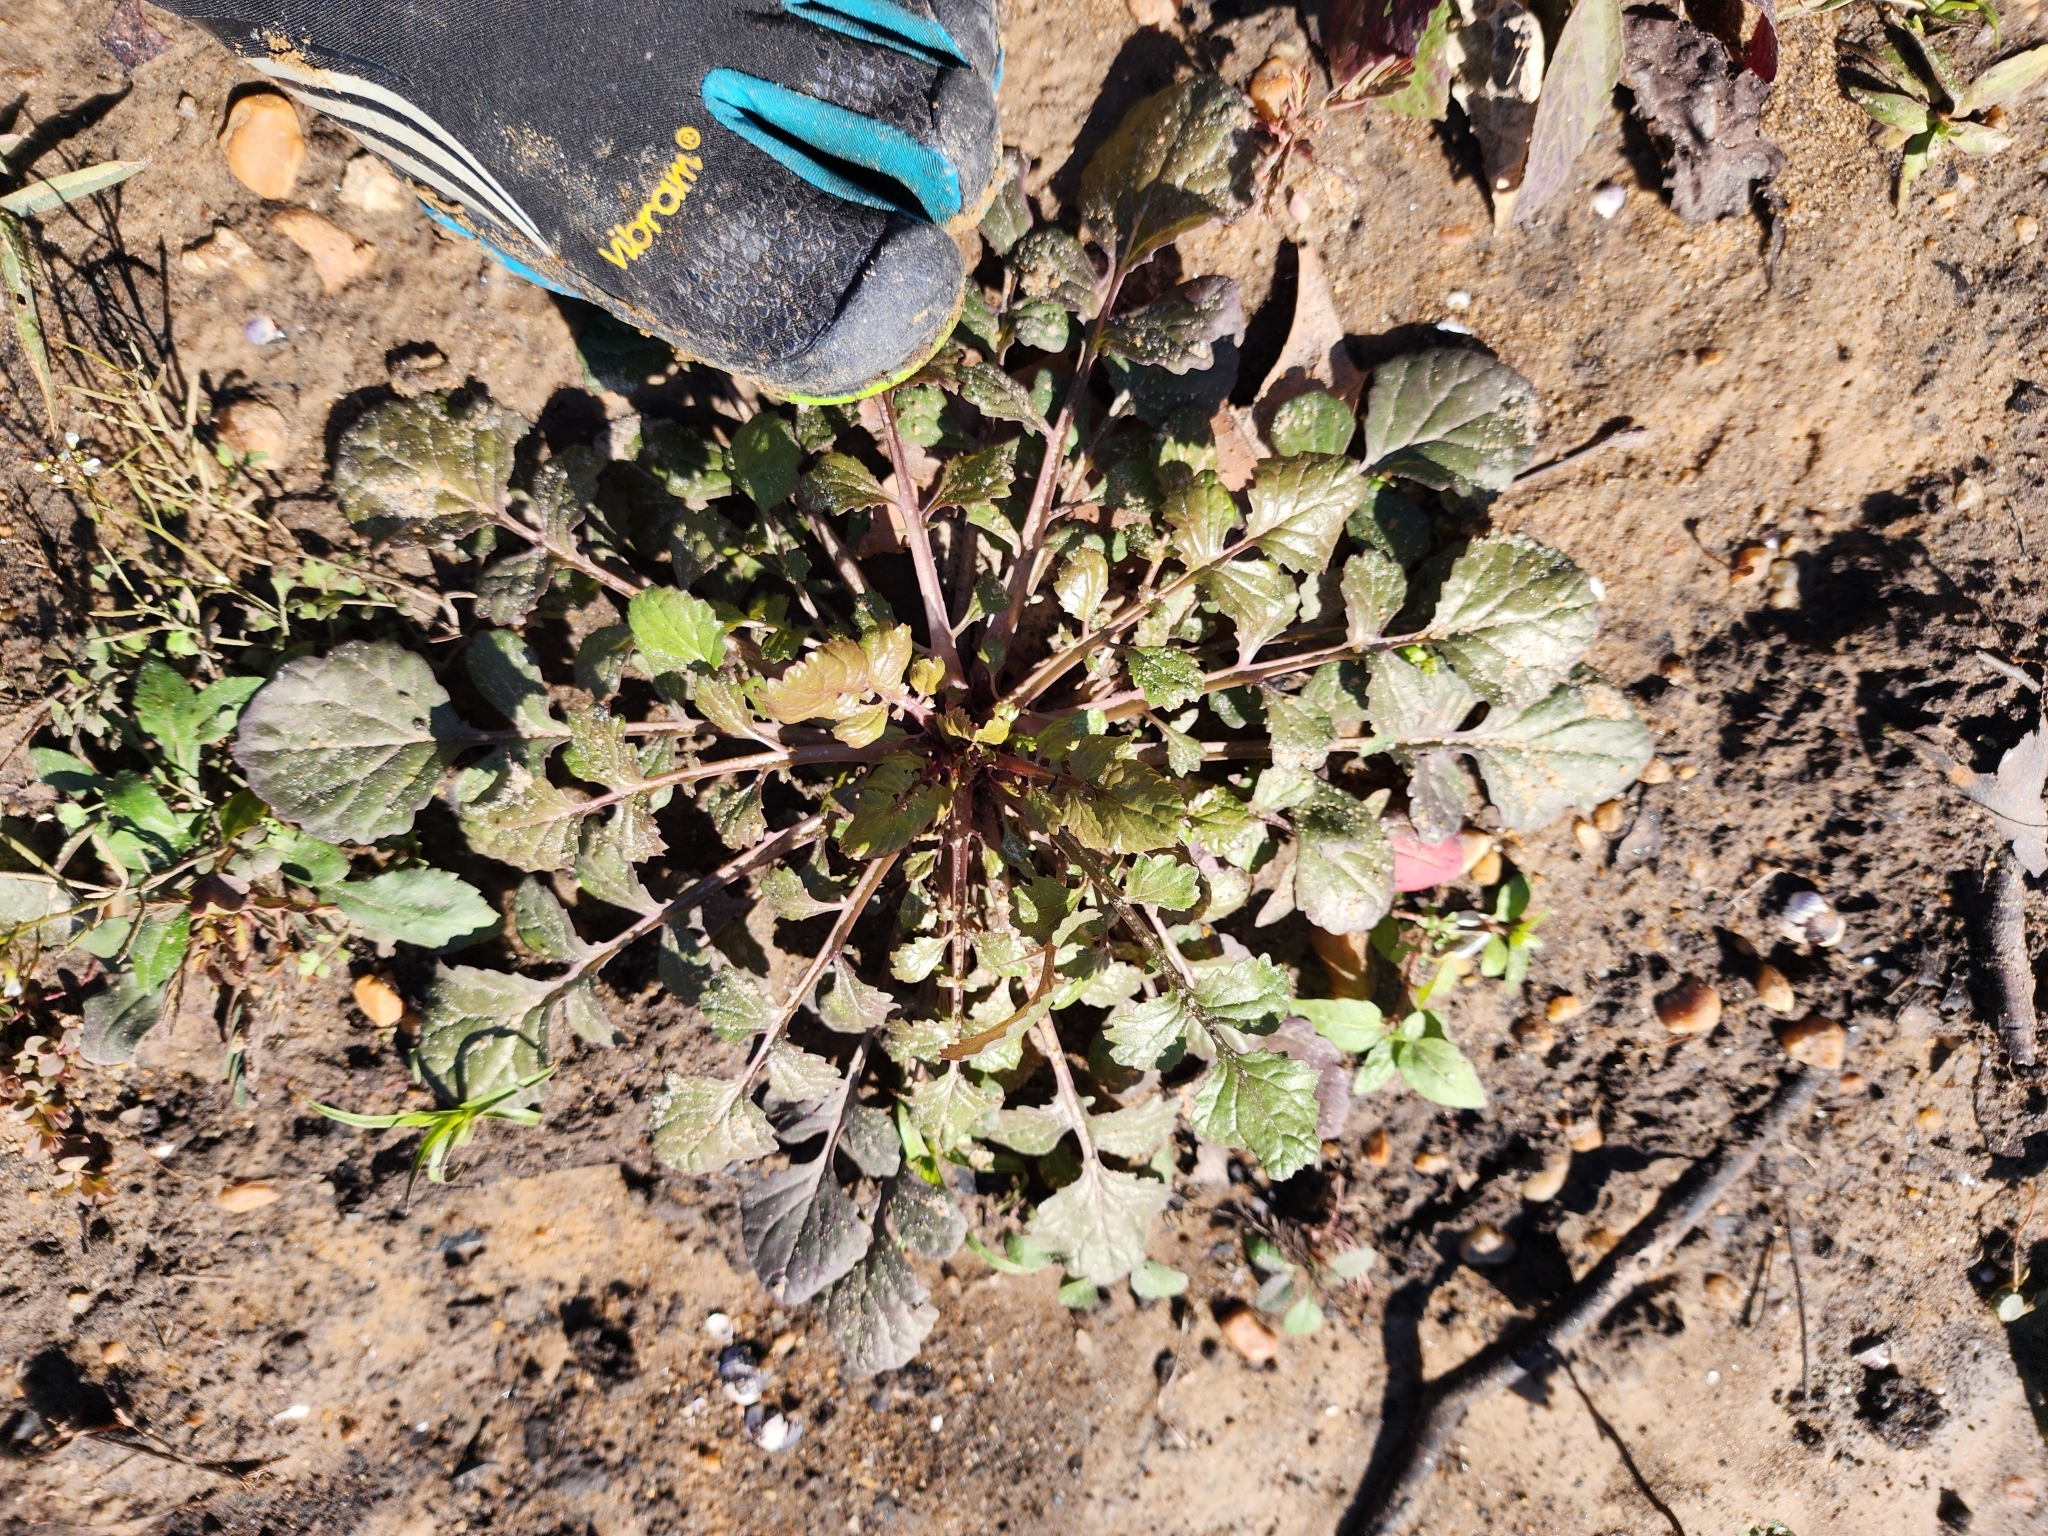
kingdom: Plantae
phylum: Tracheophyta
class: Magnoliopsida
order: Asterales
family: Asteraceae
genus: Packera
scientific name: Packera glabella
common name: Butterweed
